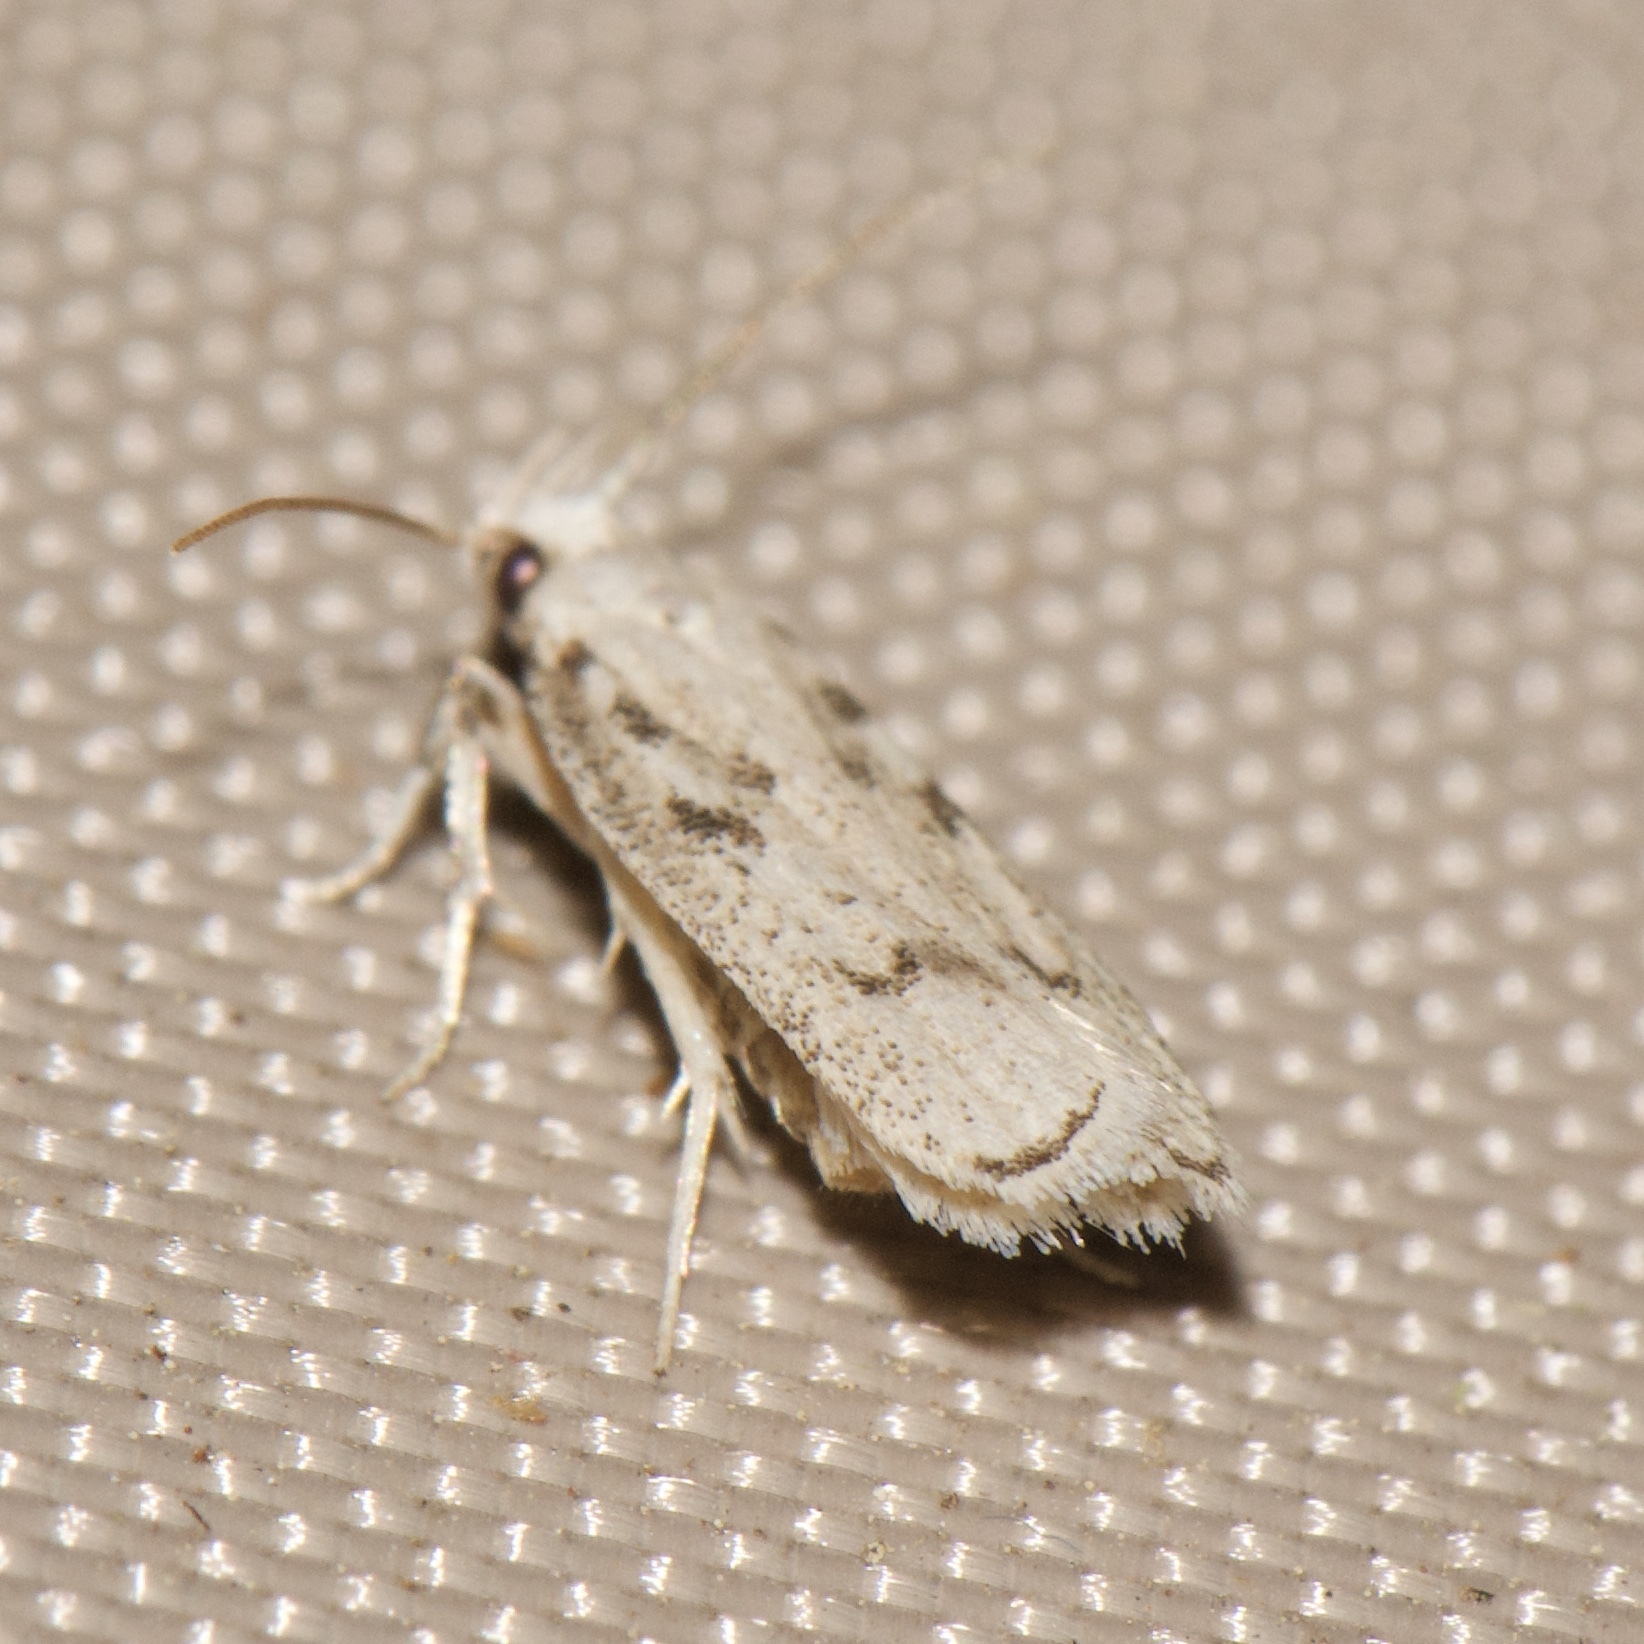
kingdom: Animalia
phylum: Arthropoda
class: Insecta
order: Lepidoptera
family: Autostichidae
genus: Glyphidocera
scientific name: Glyphidocera lactiflosella
